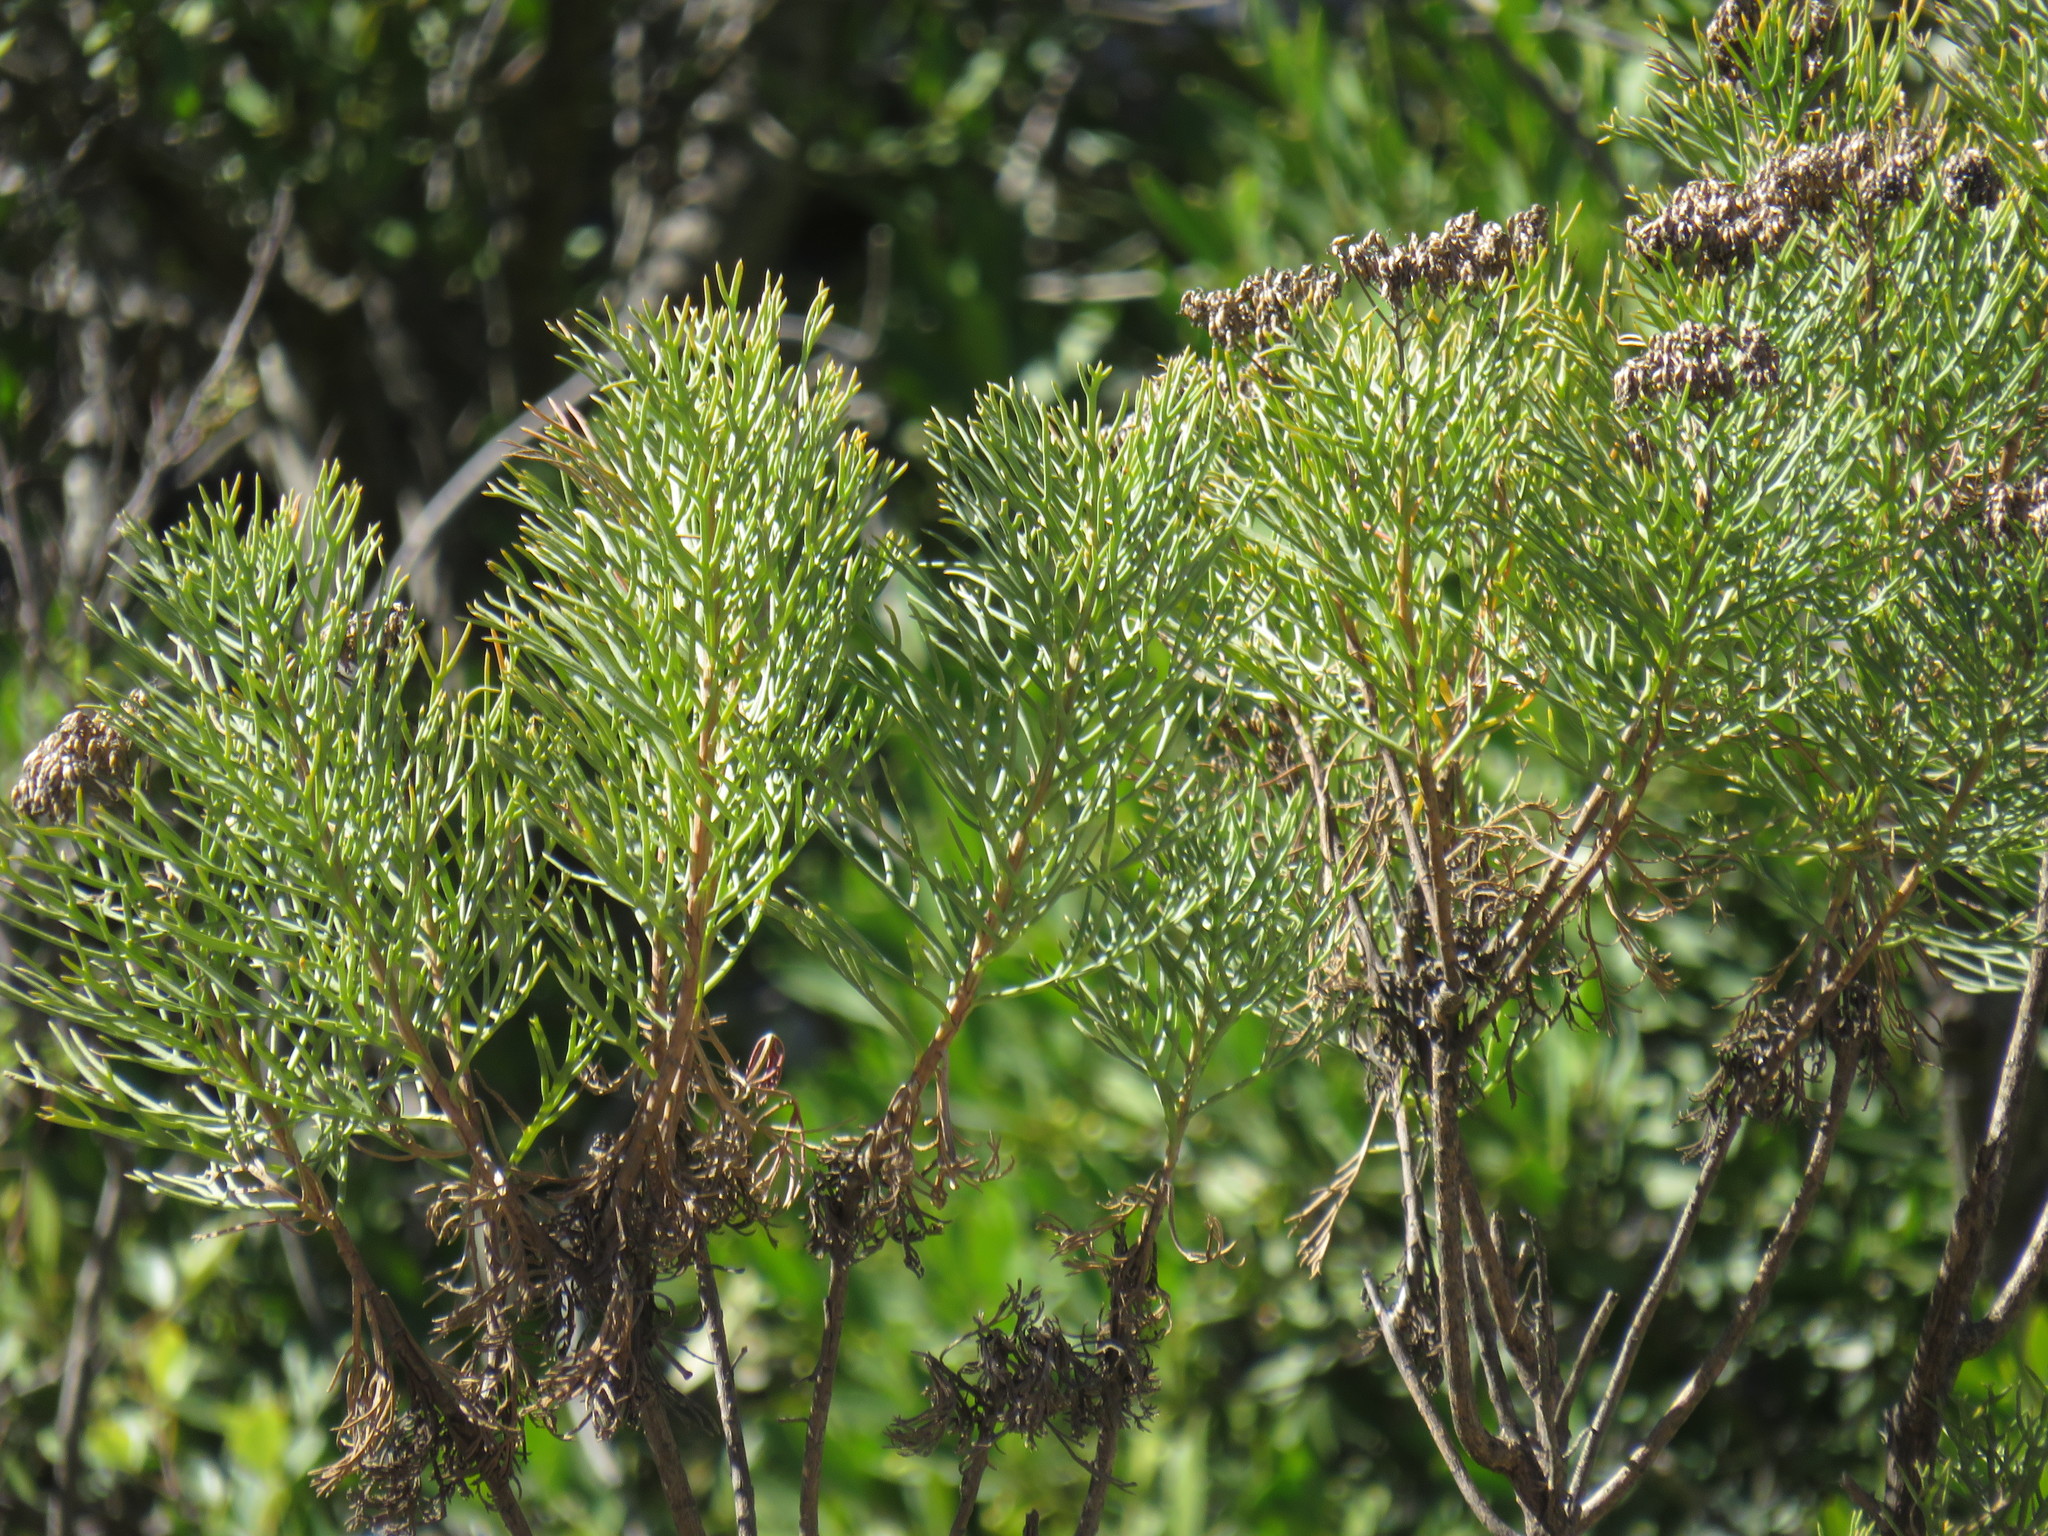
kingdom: Plantae
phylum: Tracheophyta
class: Magnoliopsida
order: Asterales
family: Asteraceae
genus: Hymenolepis
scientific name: Hymenolepis crithmifolia
